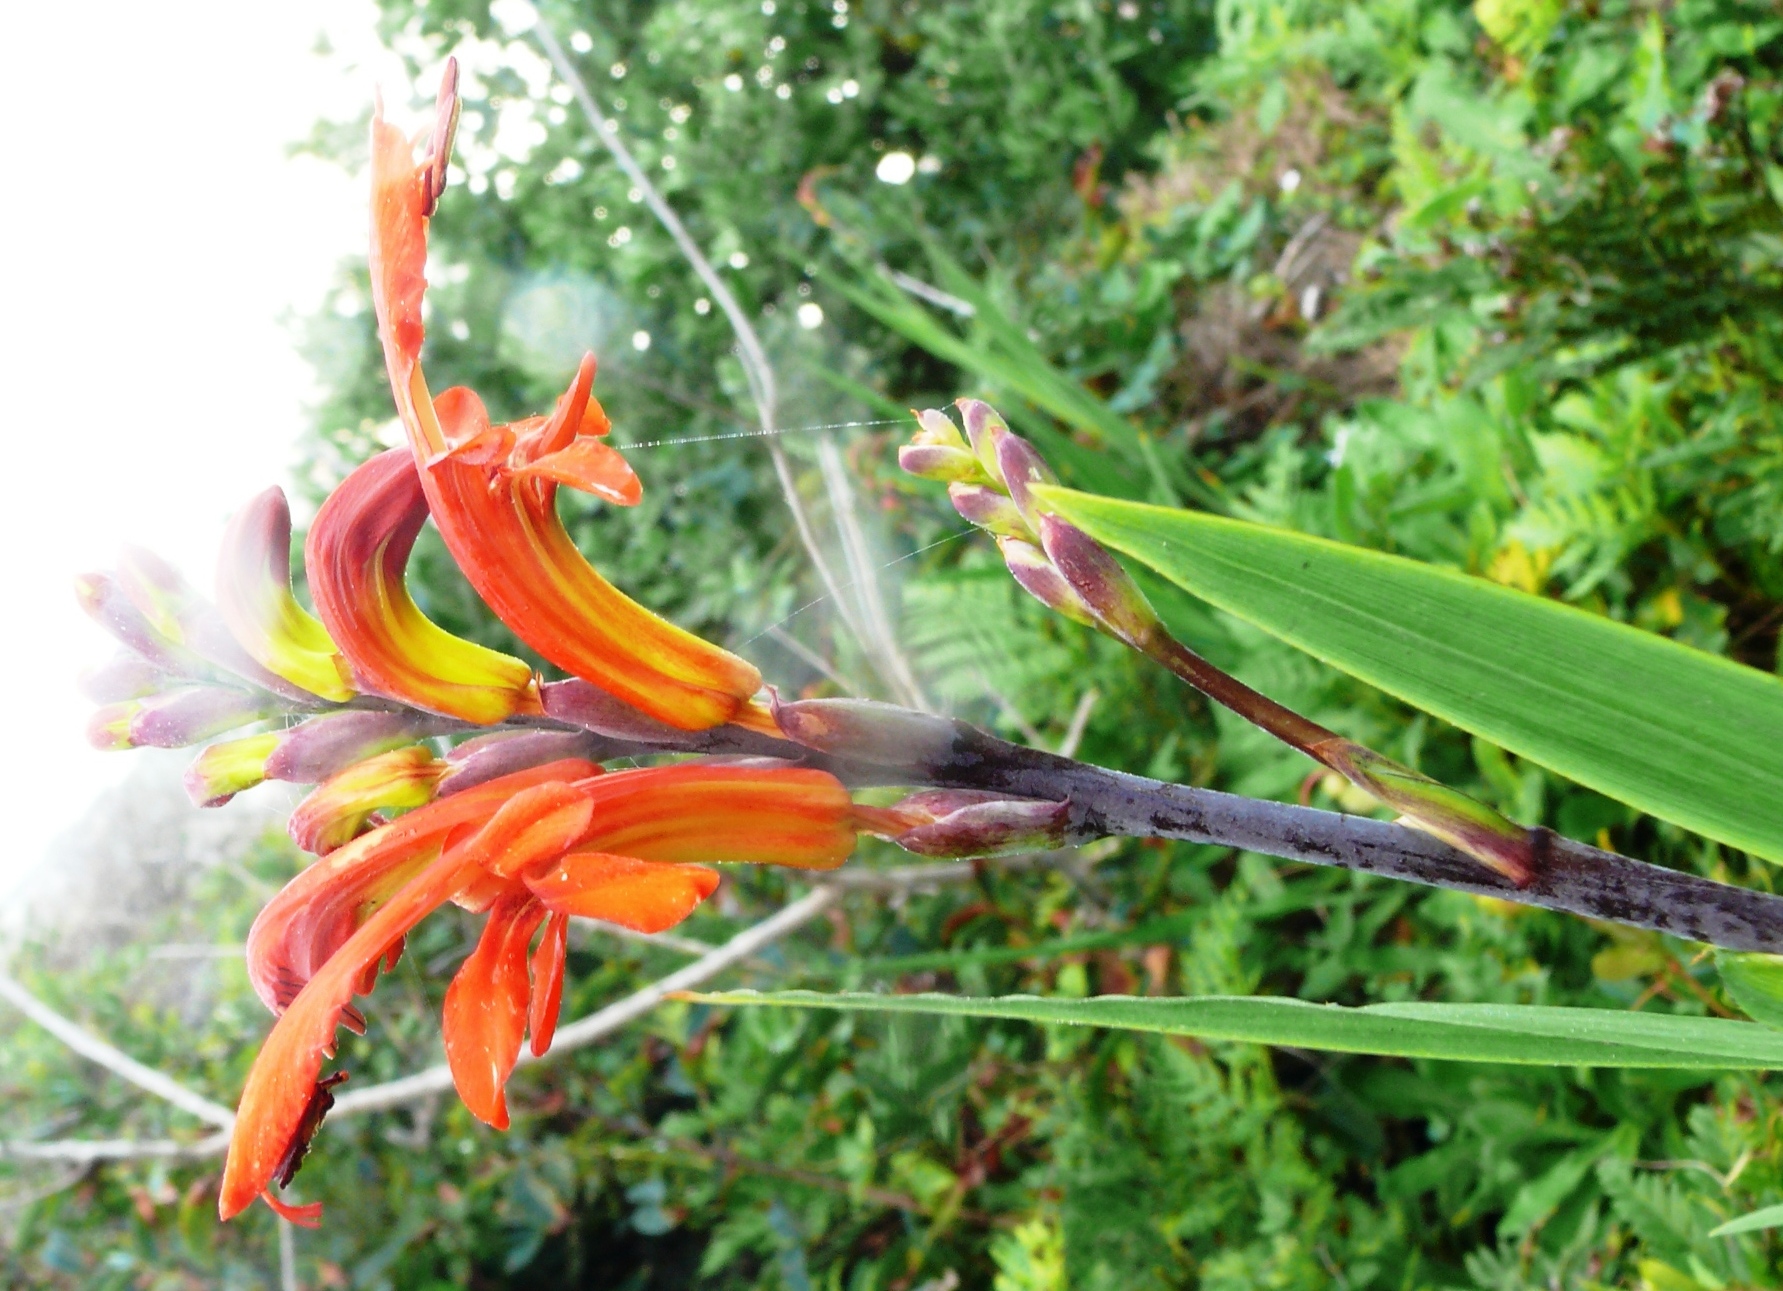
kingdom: Plantae
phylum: Tracheophyta
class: Liliopsida
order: Asparagales
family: Iridaceae
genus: Chasmanthe
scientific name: Chasmanthe aethiopica
